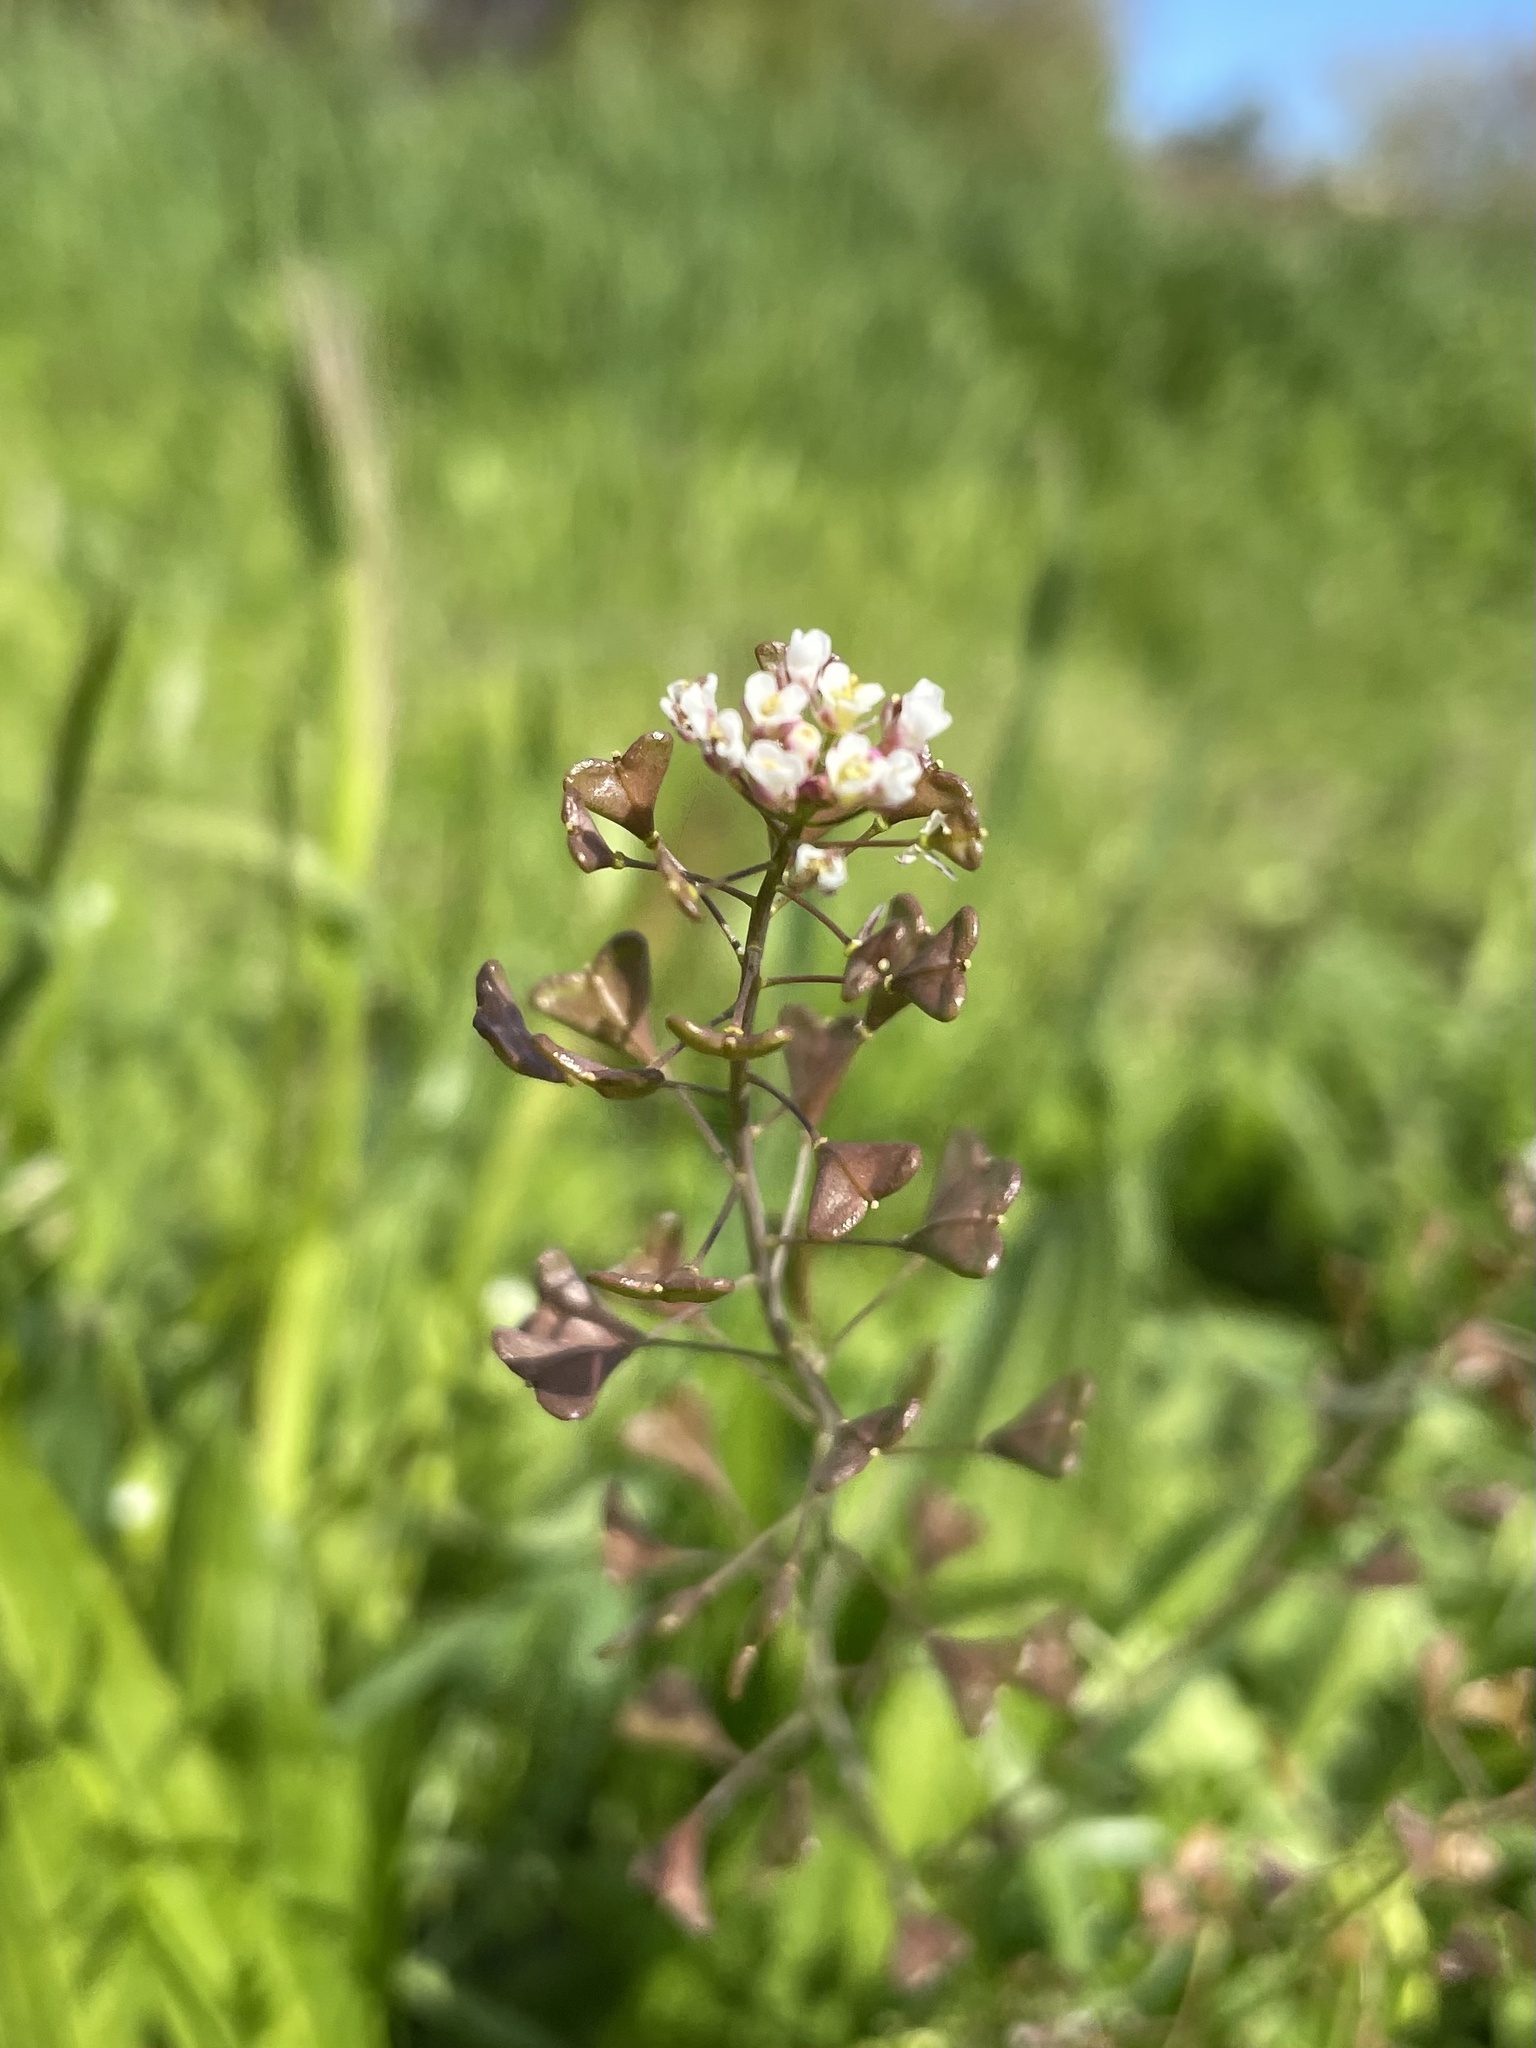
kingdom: Plantae
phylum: Tracheophyta
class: Magnoliopsida
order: Brassicales
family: Brassicaceae
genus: Capsella
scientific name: Capsella bursa-pastoris
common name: Shepherd's purse
